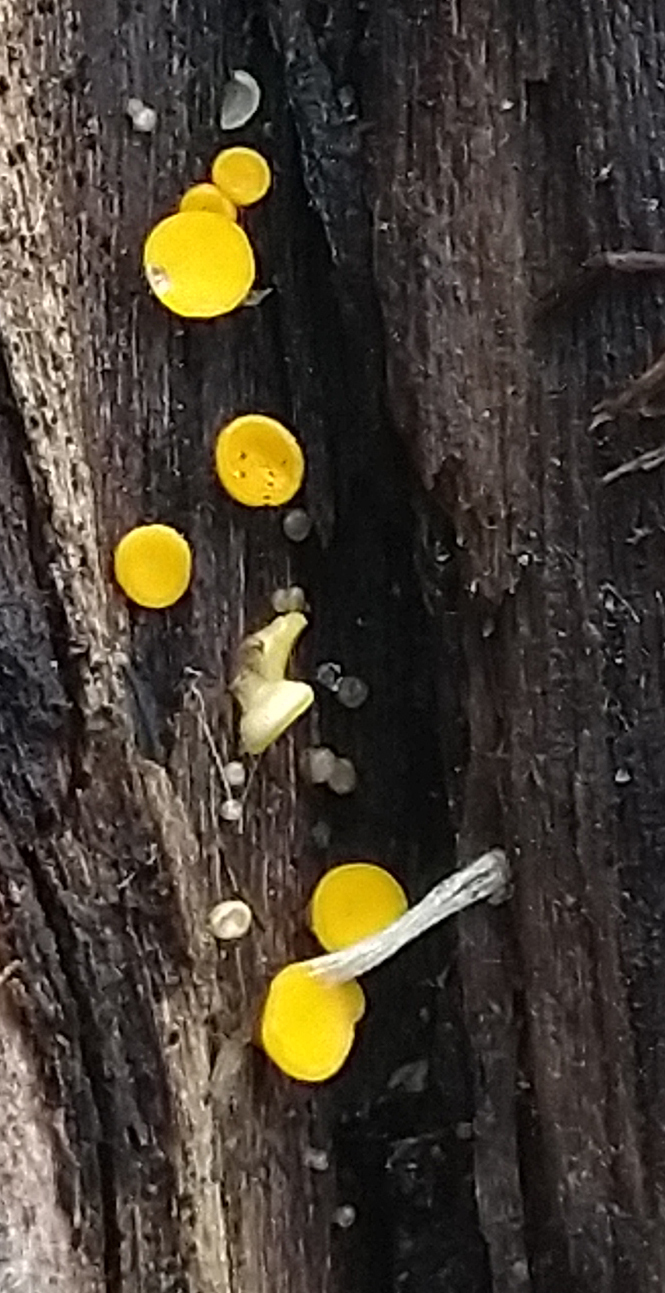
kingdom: Fungi
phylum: Ascomycota
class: Leotiomycetes
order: Helotiales
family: Pezizellaceae
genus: Calycina
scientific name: Calycina citrina
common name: Yellow fairy cups
